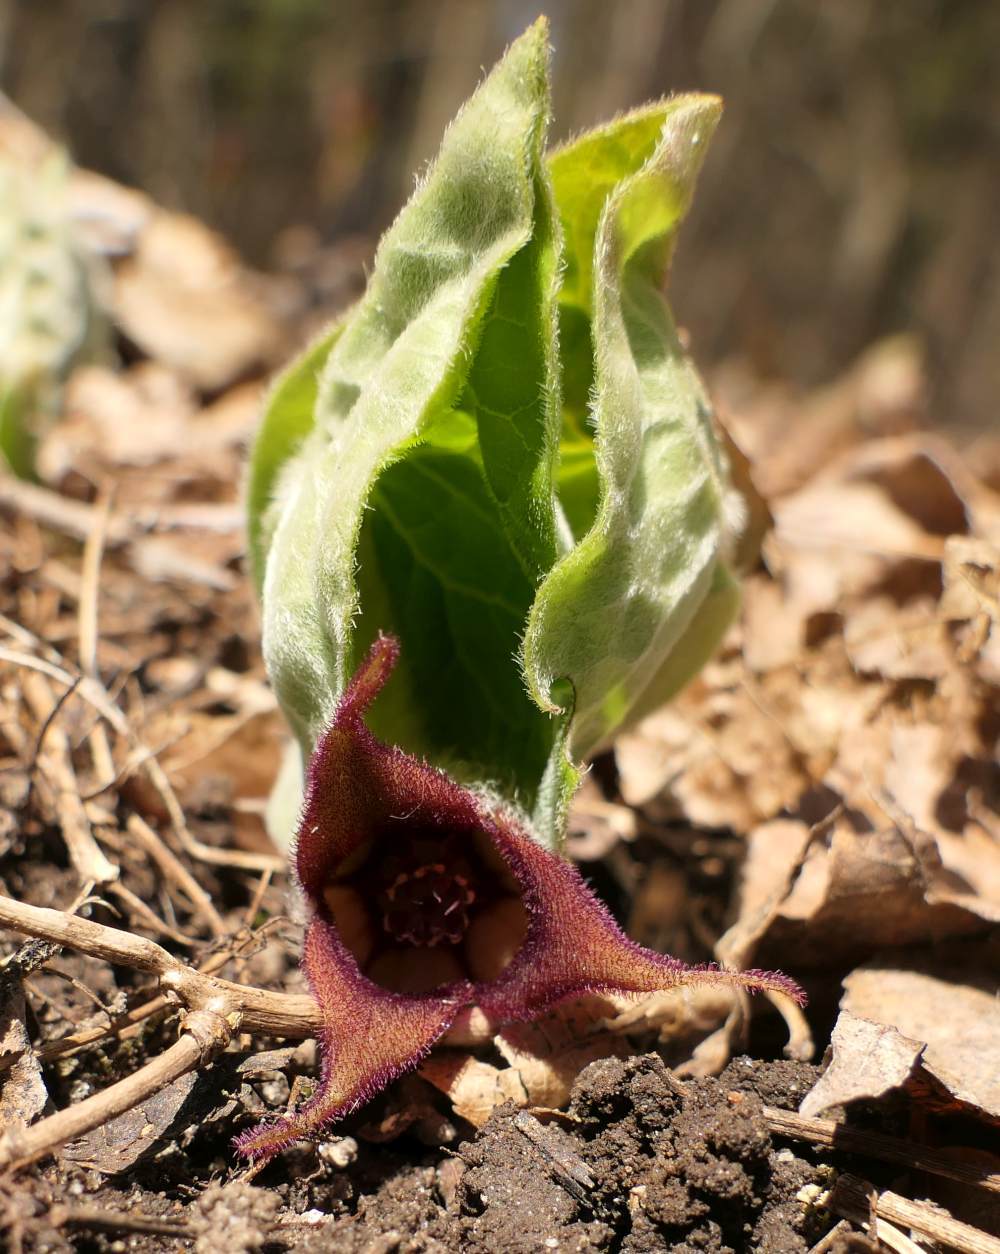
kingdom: Plantae
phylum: Tracheophyta
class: Magnoliopsida
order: Piperales
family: Aristolochiaceae
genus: Asarum
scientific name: Asarum canadense
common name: Wild ginger
